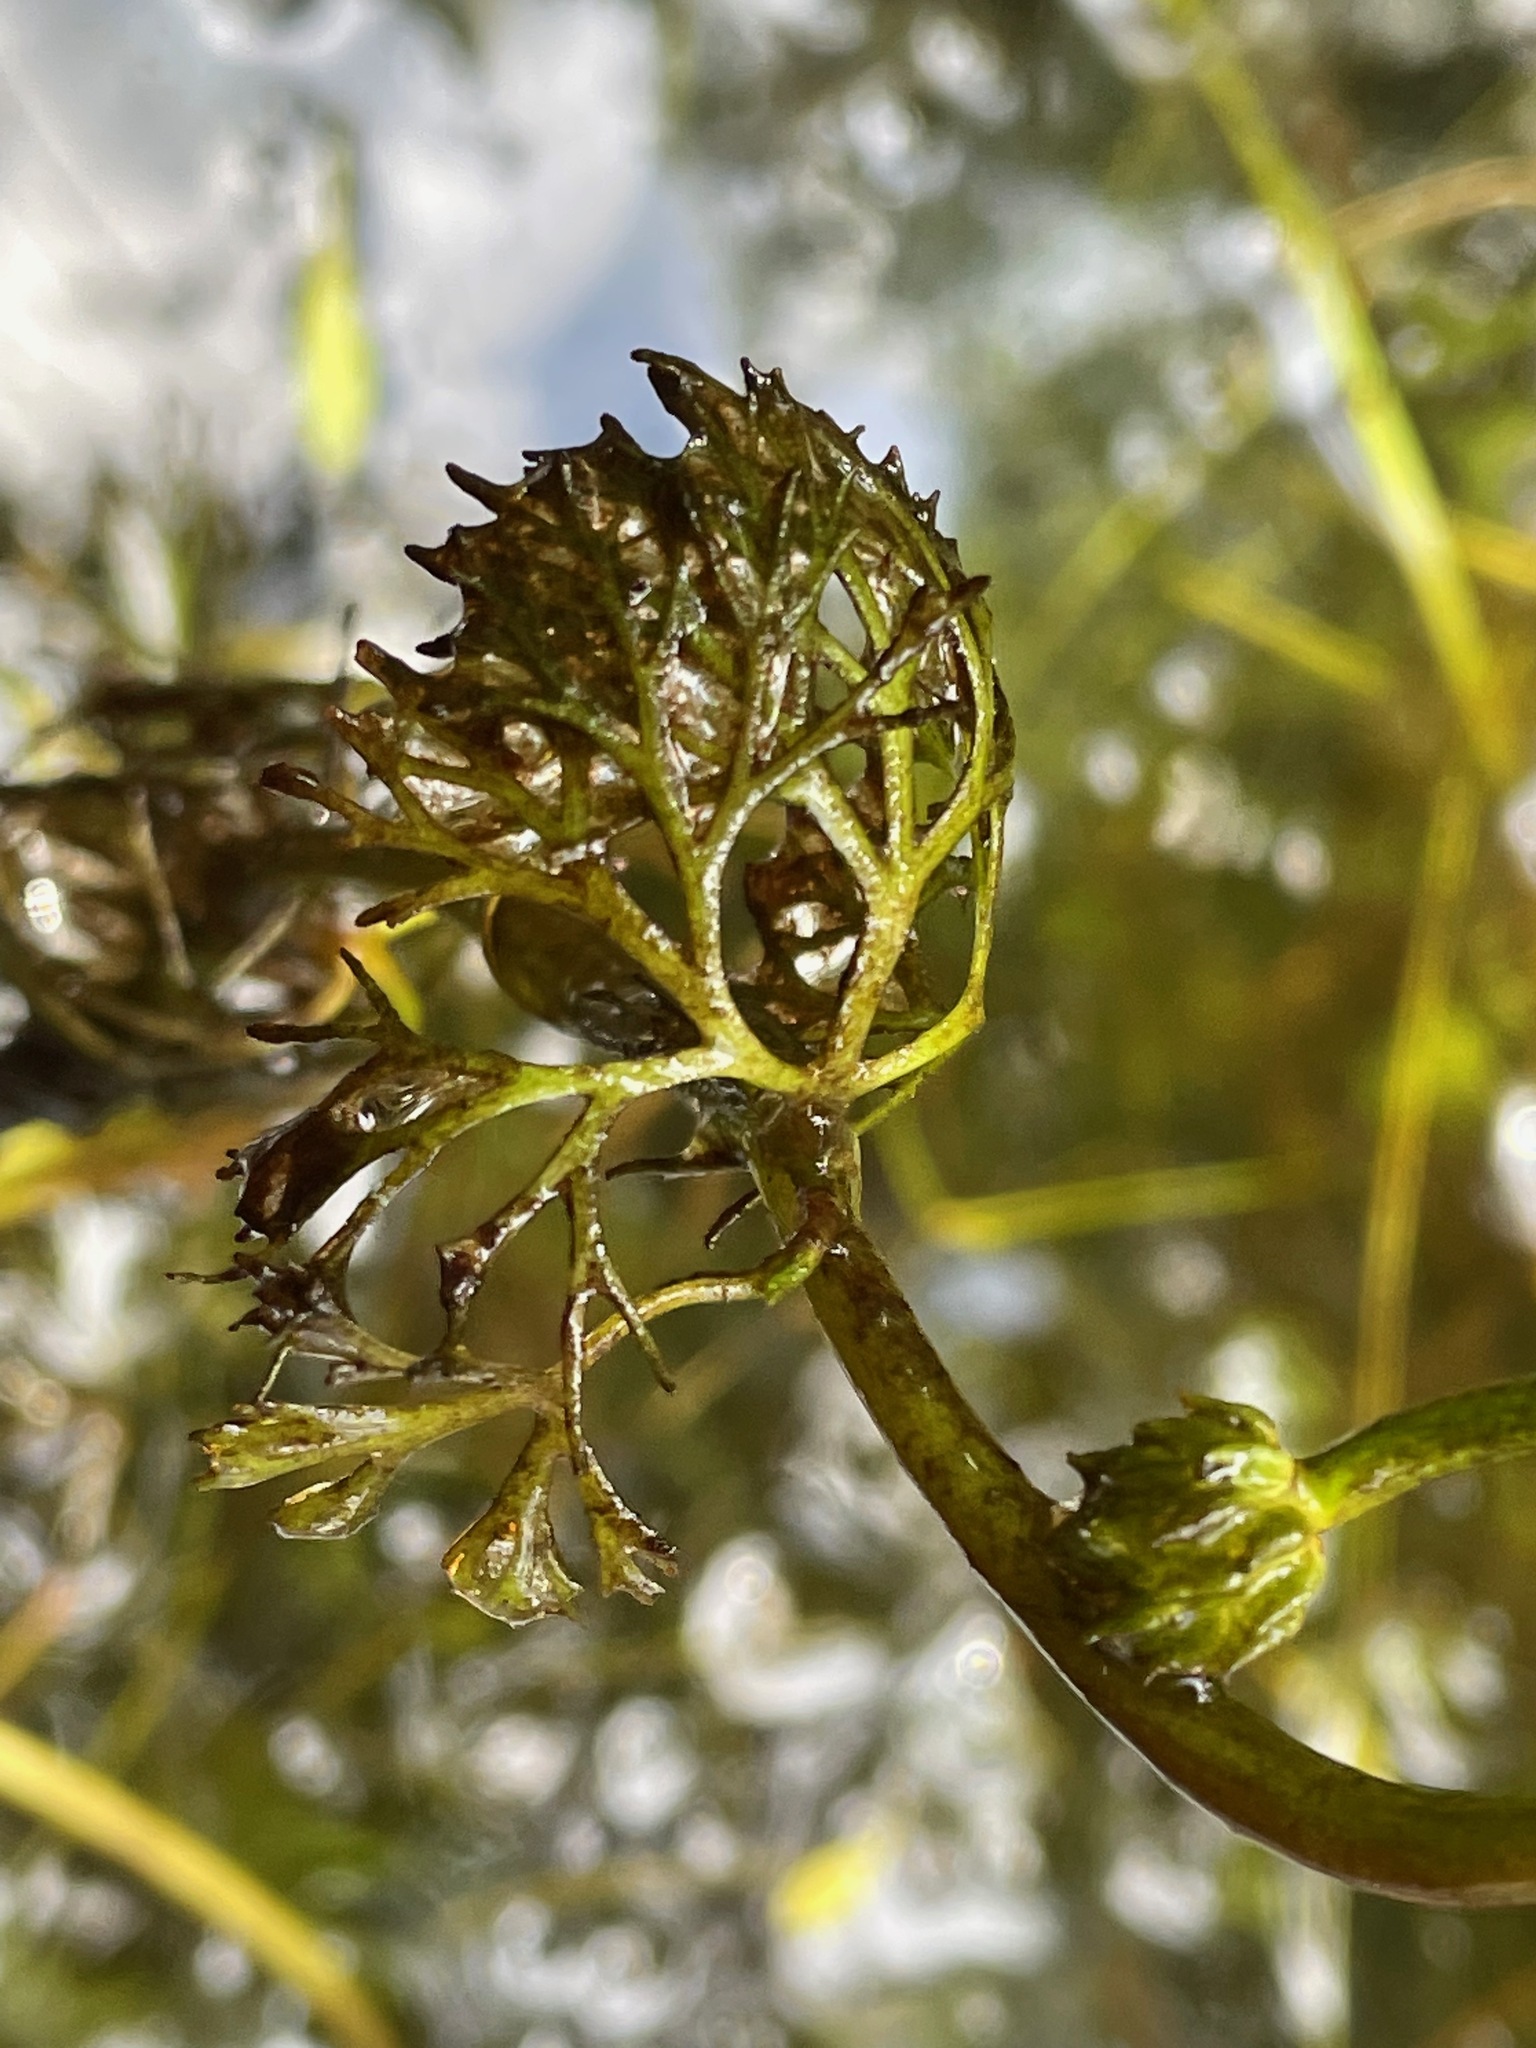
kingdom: Plantae
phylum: Tracheophyta
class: Magnoliopsida
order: Ranunculales
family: Ranunculaceae
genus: Ranunculus
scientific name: Ranunculus flabellaris
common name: Yellow water-crowfoot
